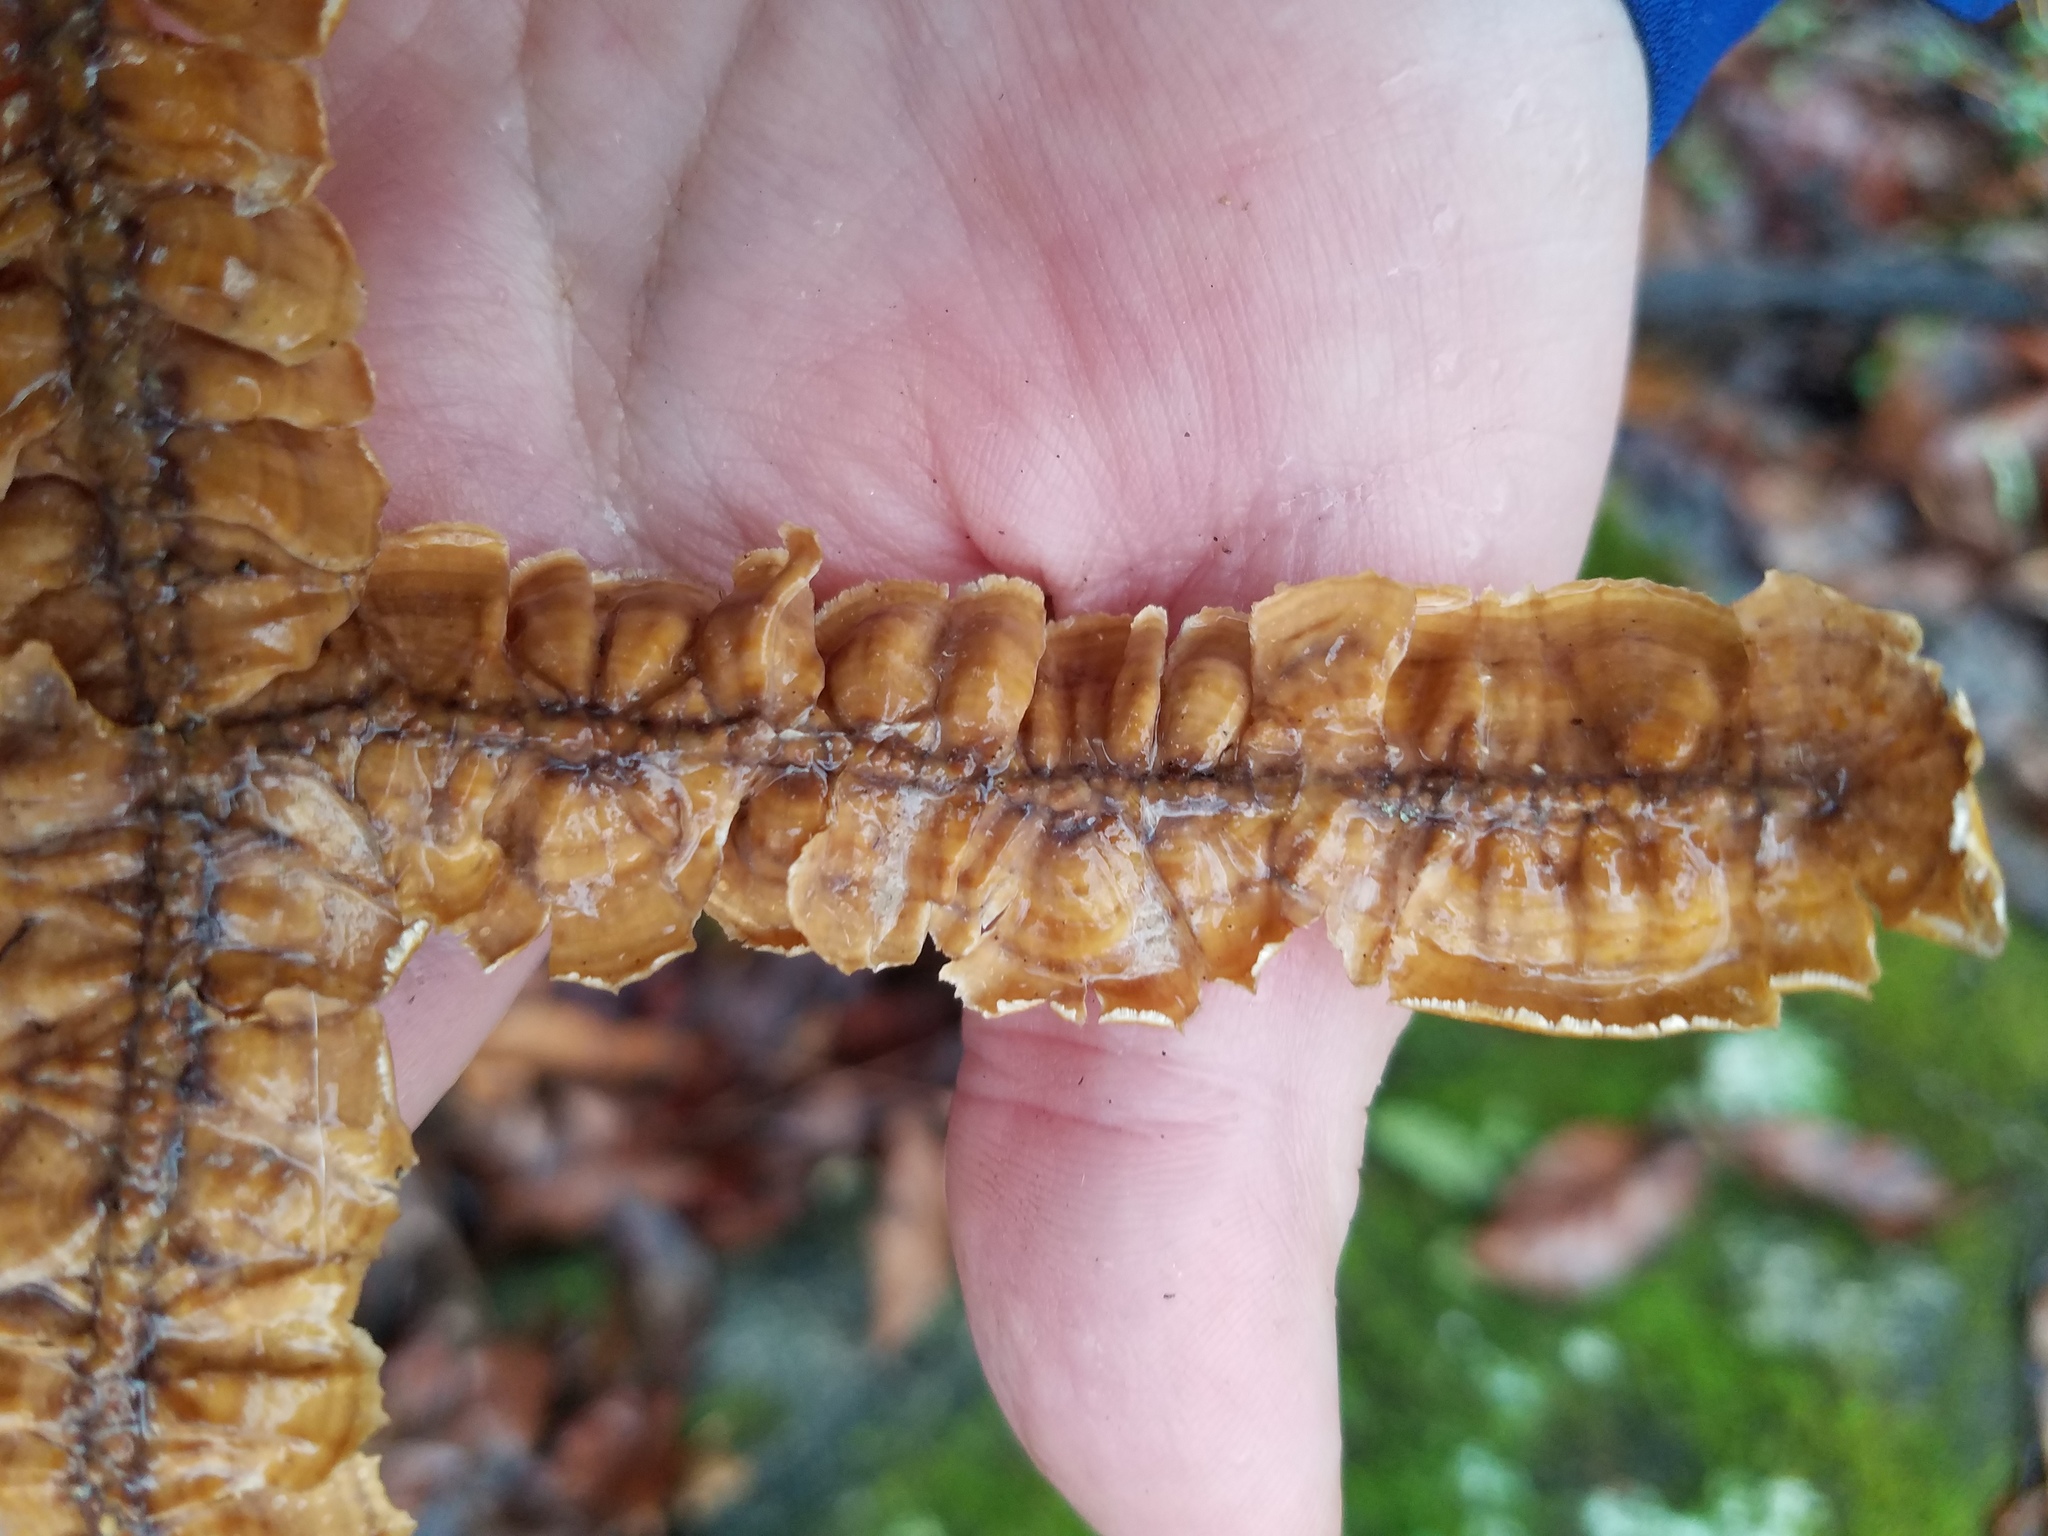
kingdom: Fungi
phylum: Basidiomycota
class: Agaricomycetes
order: Russulales
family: Stereaceae
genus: Stereum
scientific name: Stereum complicatum
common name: Crowded parchment
